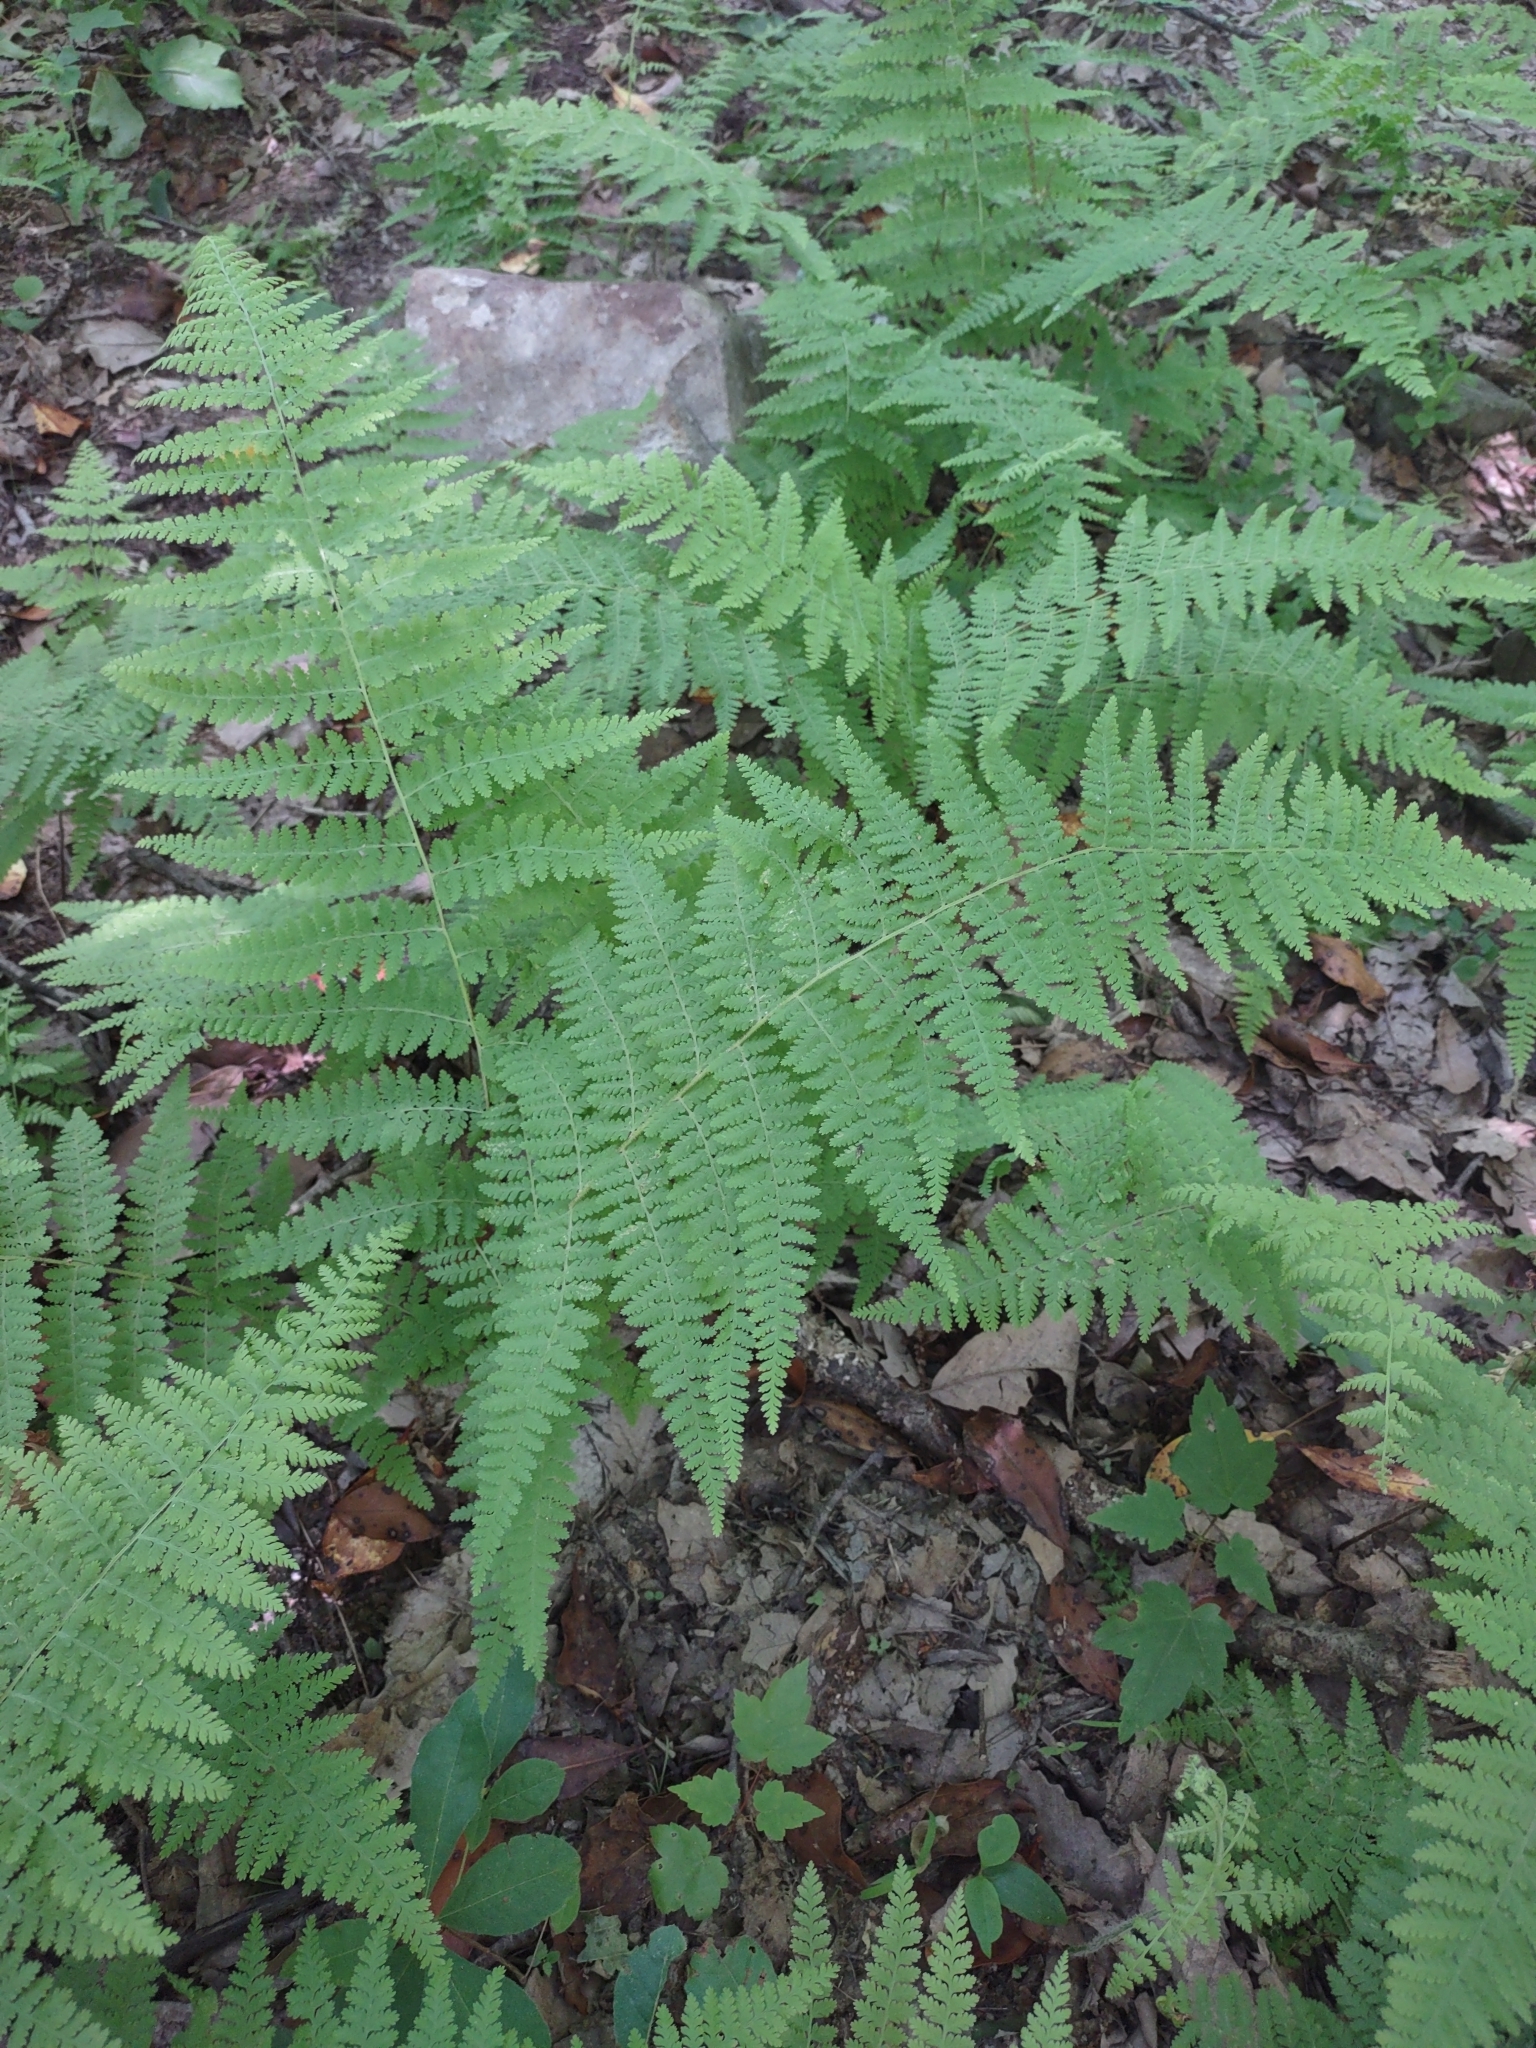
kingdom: Plantae
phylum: Tracheophyta
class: Polypodiopsida
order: Polypodiales
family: Dennstaedtiaceae
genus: Sitobolium
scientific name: Sitobolium punctilobum
